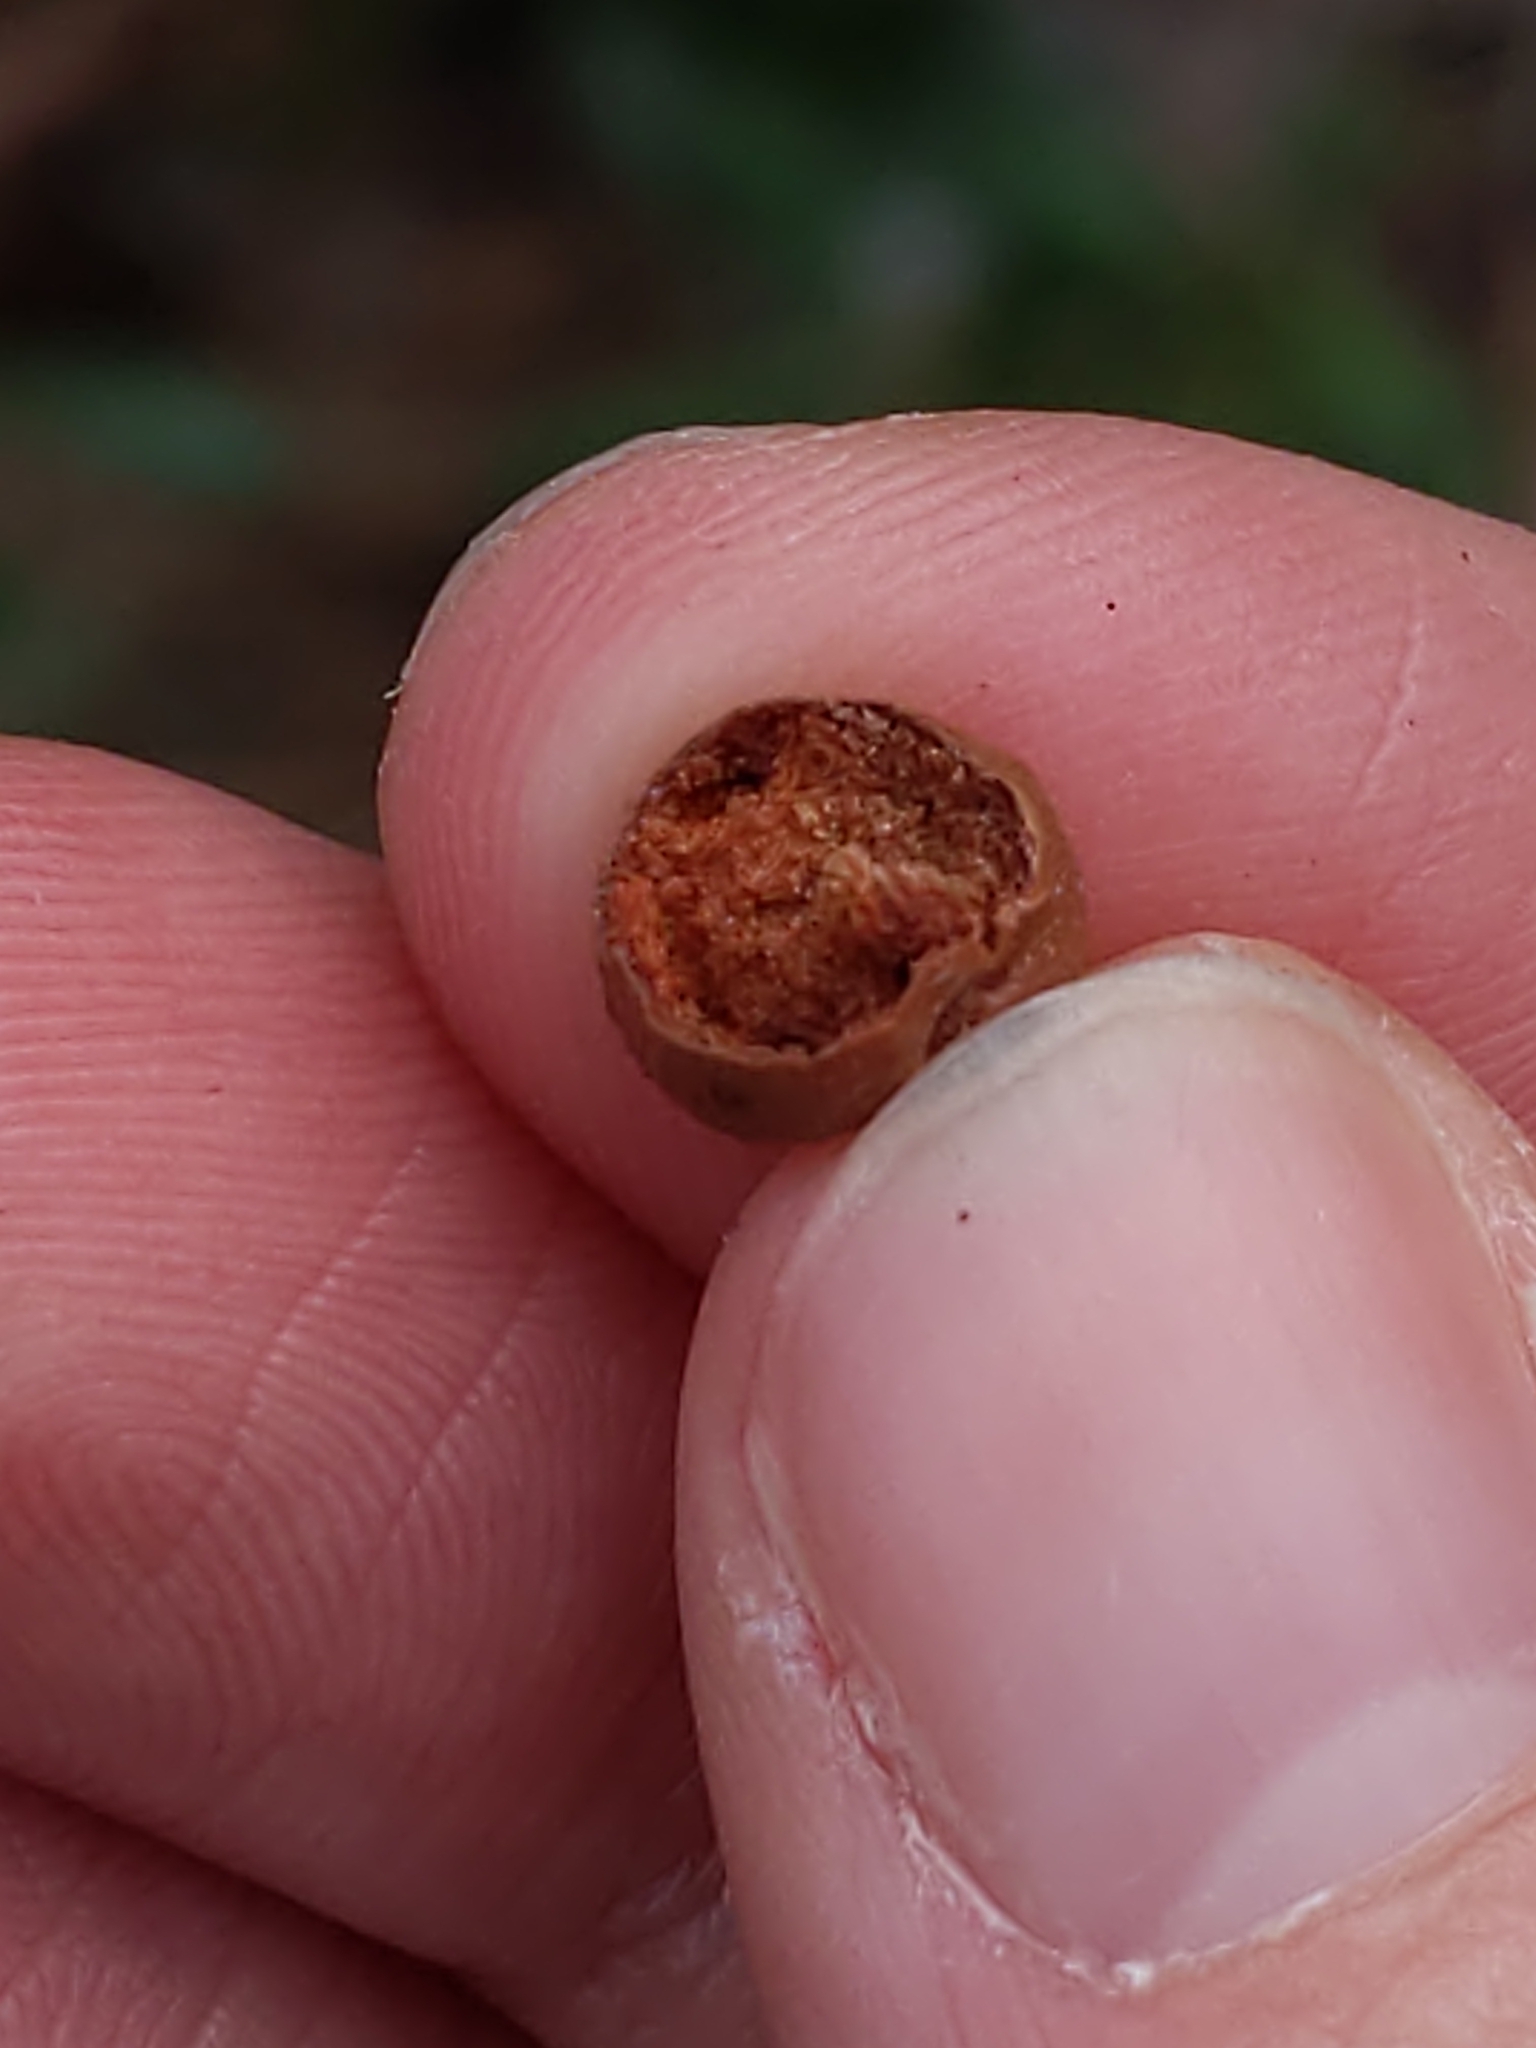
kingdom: Animalia
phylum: Arthropoda
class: Insecta
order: Hymenoptera
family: Cynipidae
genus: Belonocnema
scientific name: Belonocnema fossoria
